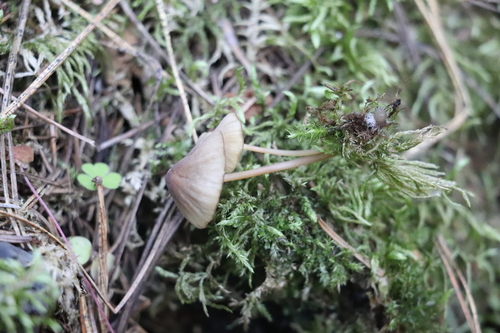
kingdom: Fungi
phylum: Basidiomycota
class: Agaricomycetes
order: Agaricales
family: Mycenaceae
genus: Mycena
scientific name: Mycena viridimarginata
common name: Olive edge bonnet
